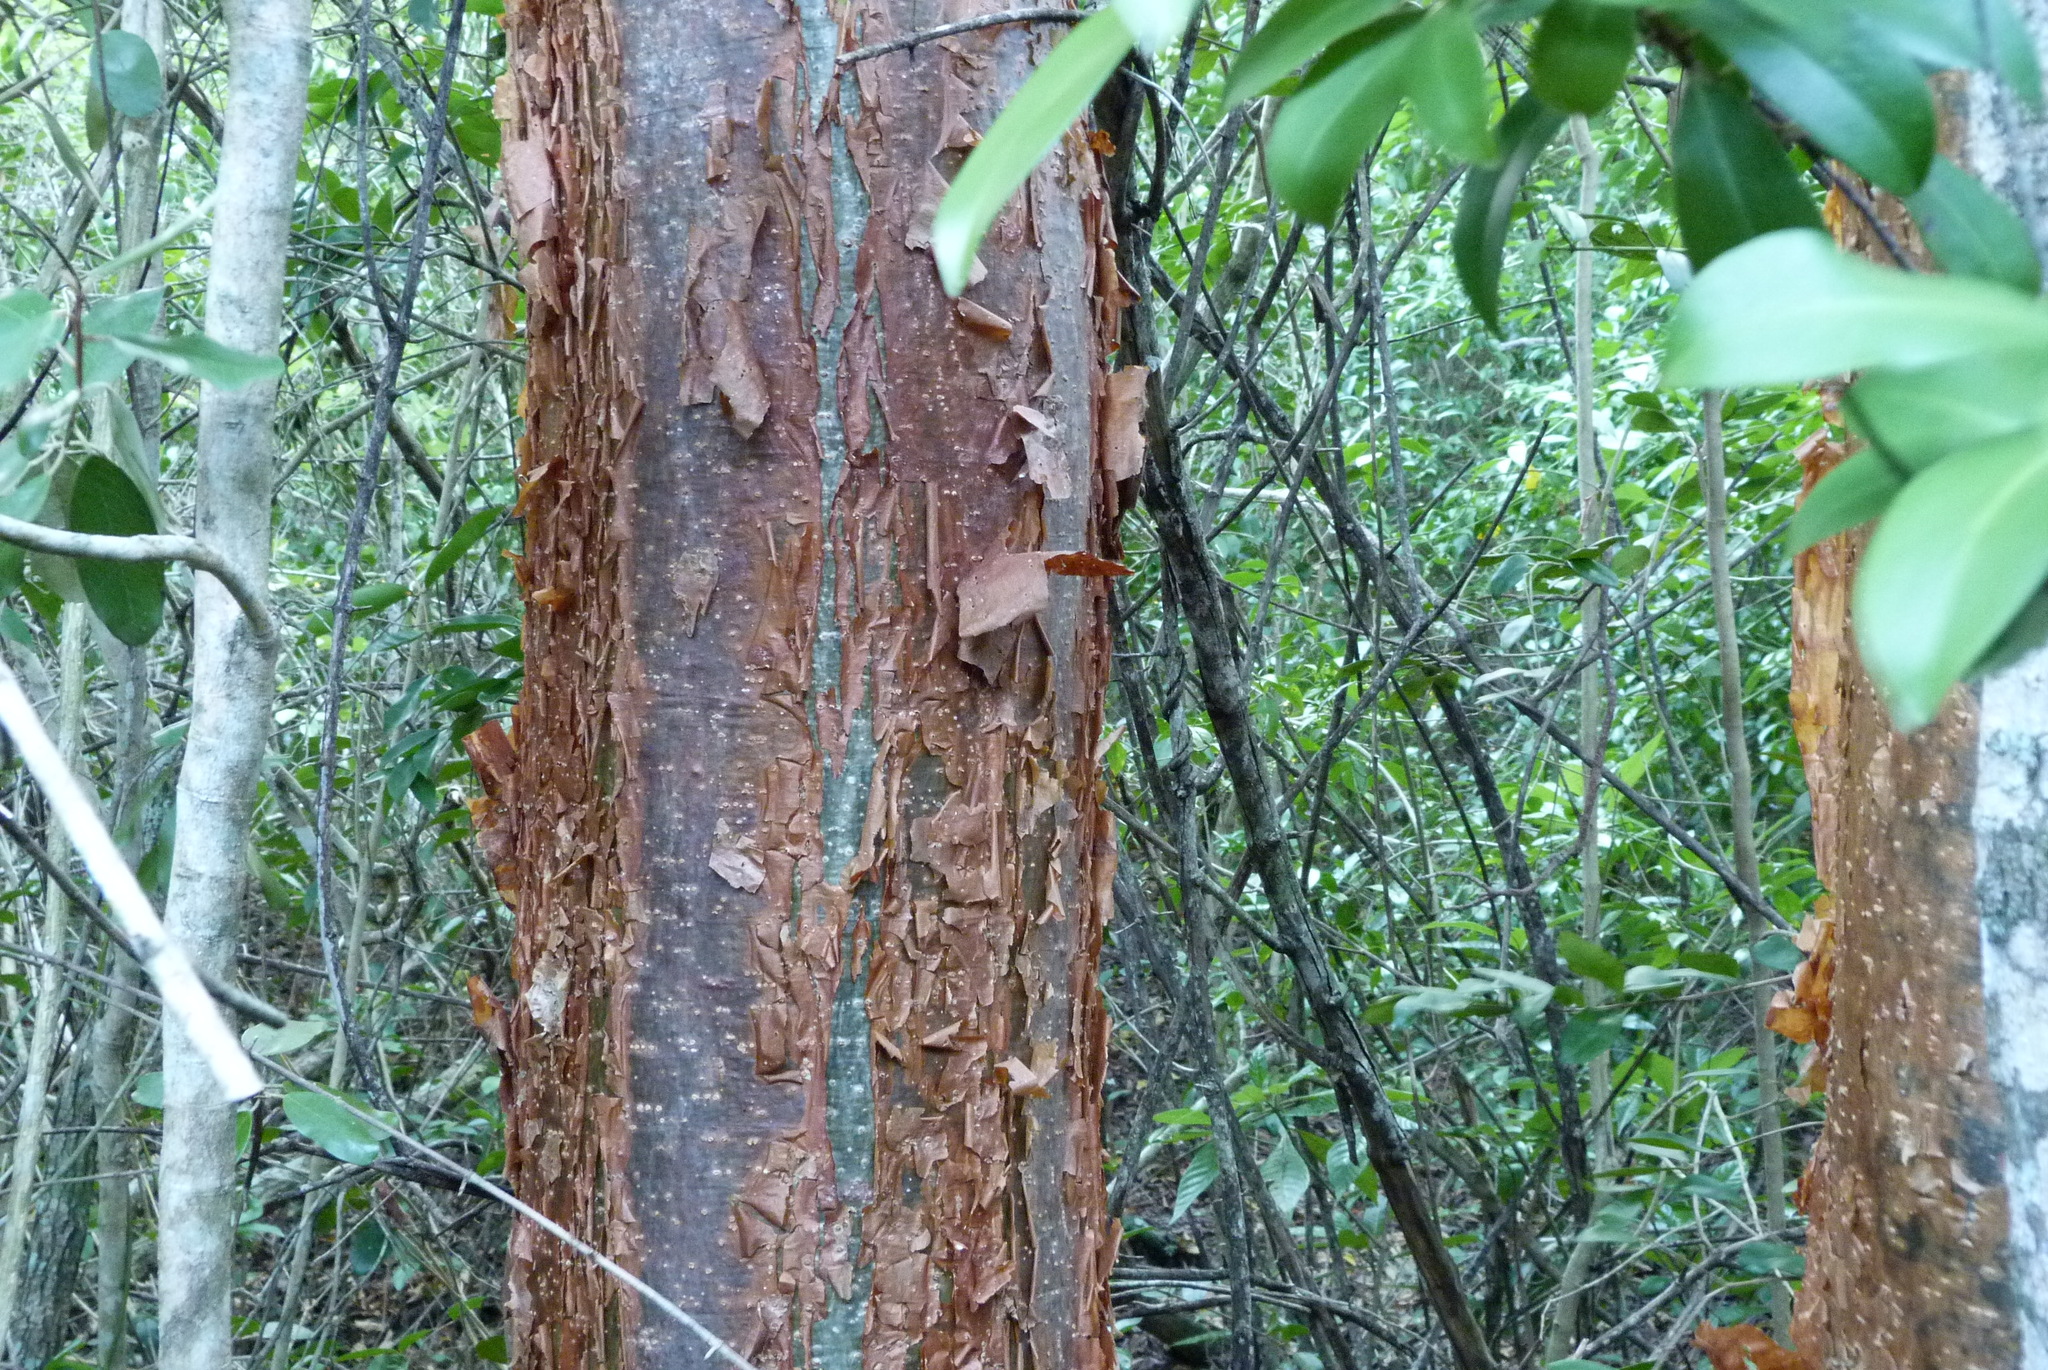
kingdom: Plantae
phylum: Tracheophyta
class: Magnoliopsida
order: Sapindales
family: Burseraceae
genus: Bursera
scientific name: Bursera simaruba
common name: Turpentine tree
